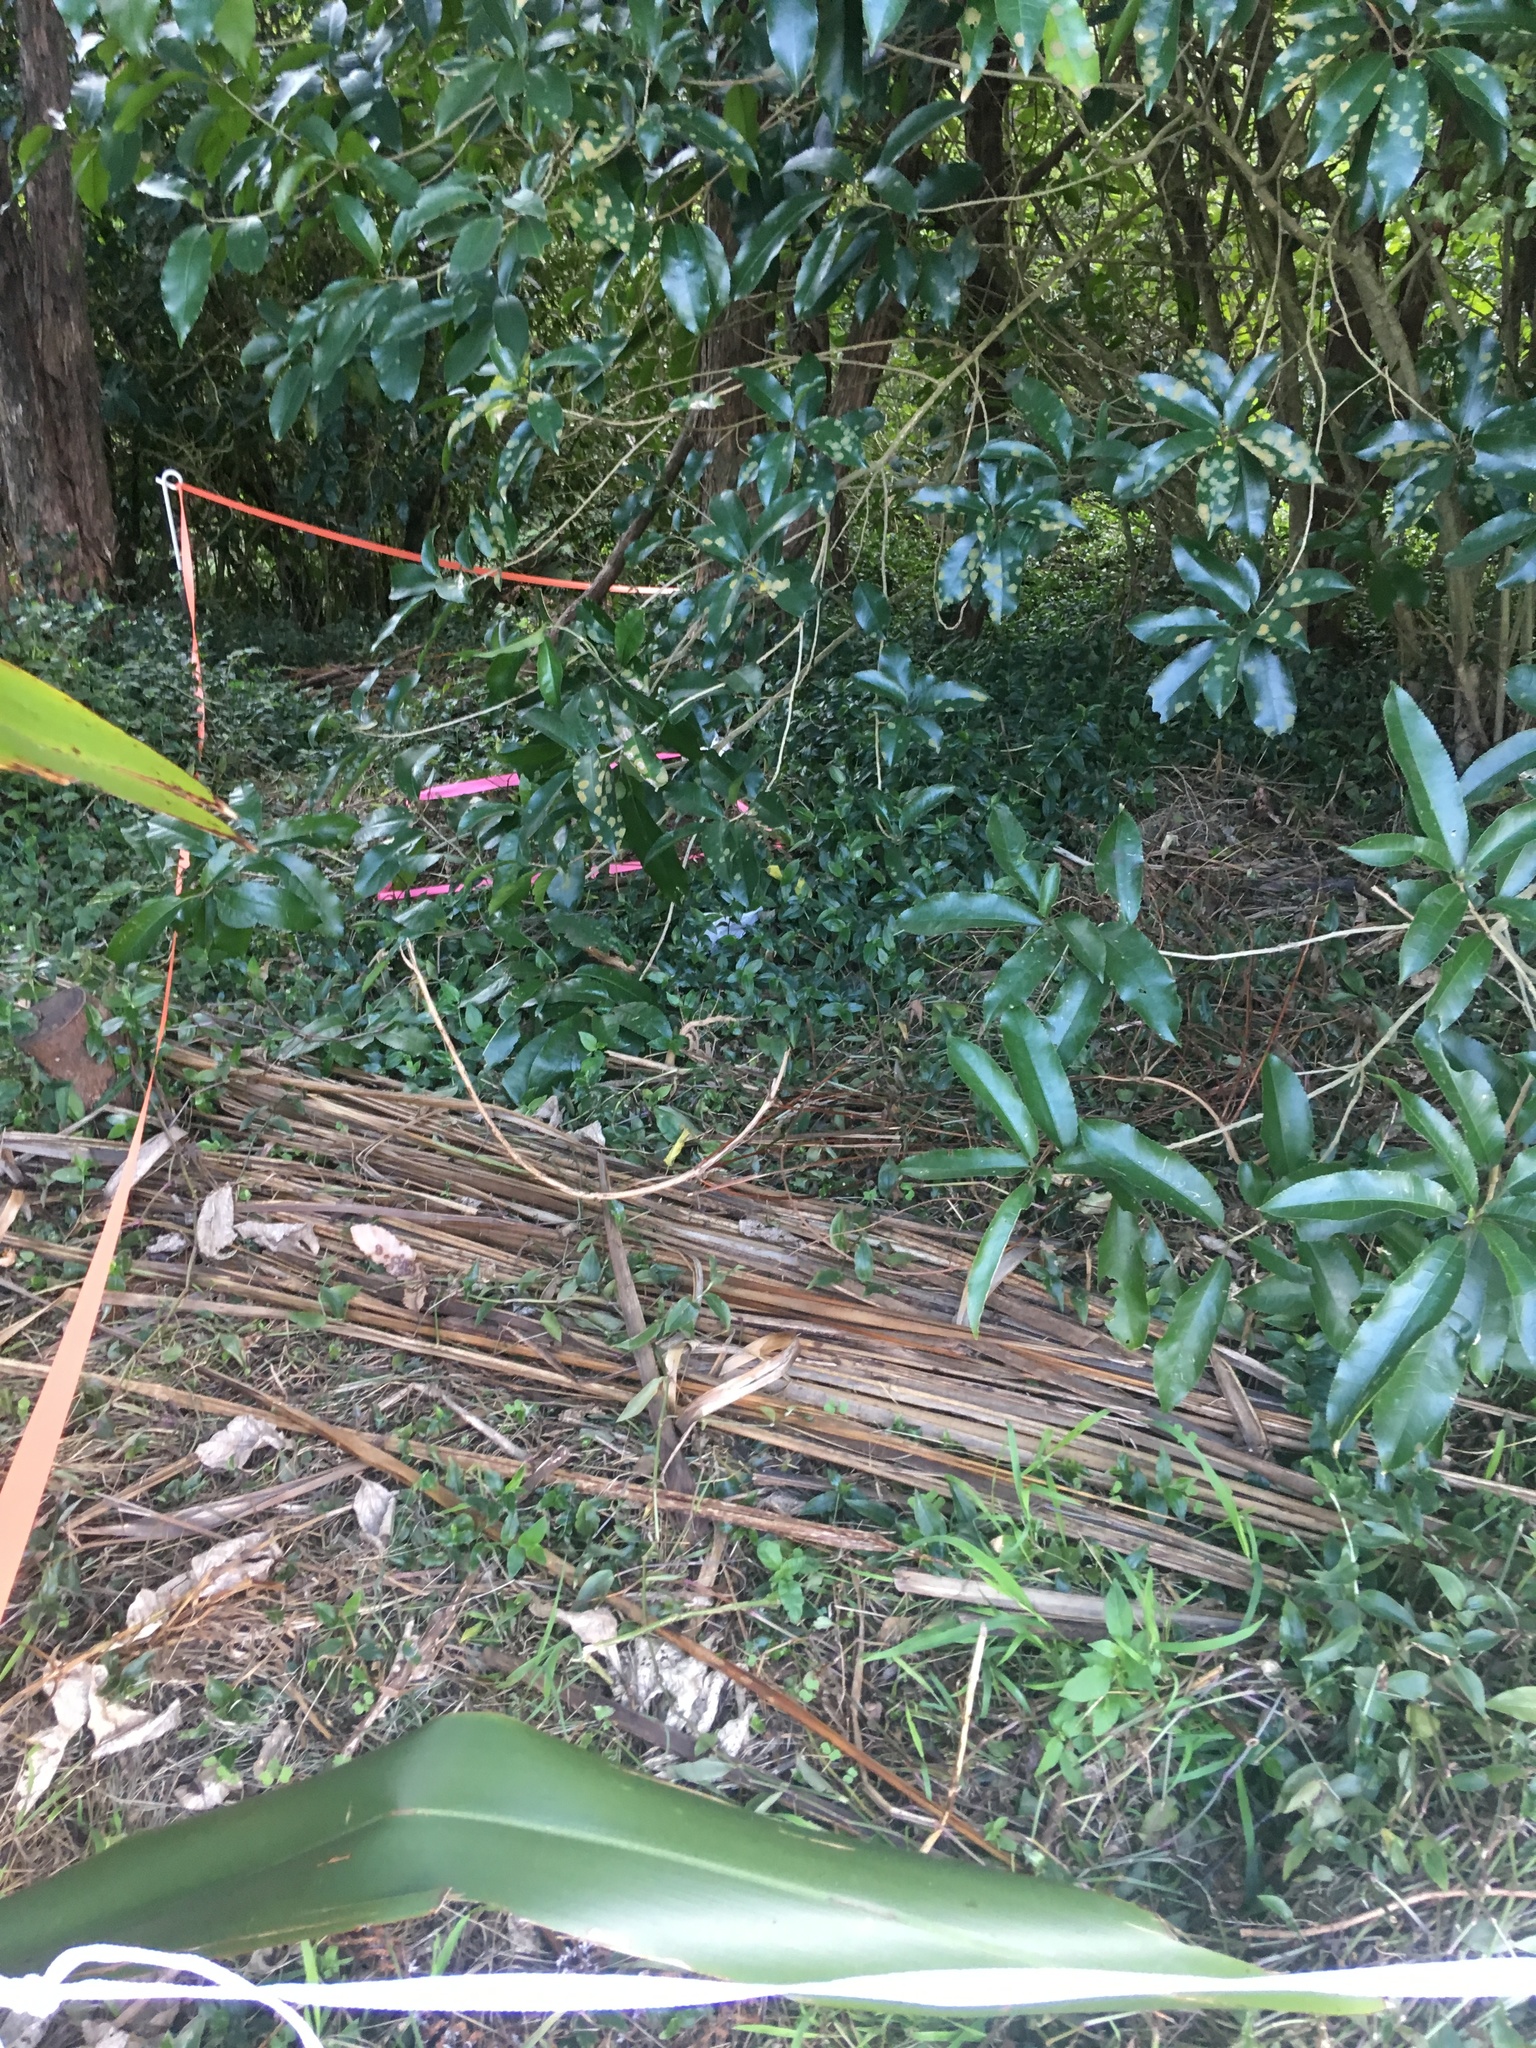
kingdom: Plantae
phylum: Tracheophyta
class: Magnoliopsida
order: Malpighiales
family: Violaceae
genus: Melicytus
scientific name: Melicytus ramiflorus
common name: Mahoe
